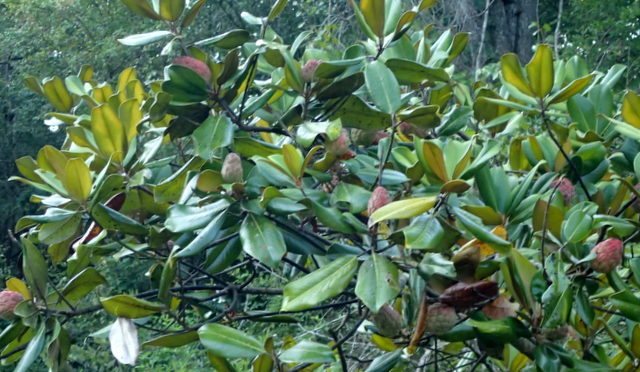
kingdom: Plantae
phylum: Tracheophyta
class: Magnoliopsida
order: Magnoliales
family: Magnoliaceae
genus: Magnolia
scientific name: Magnolia grandiflora
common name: Southern magnolia
